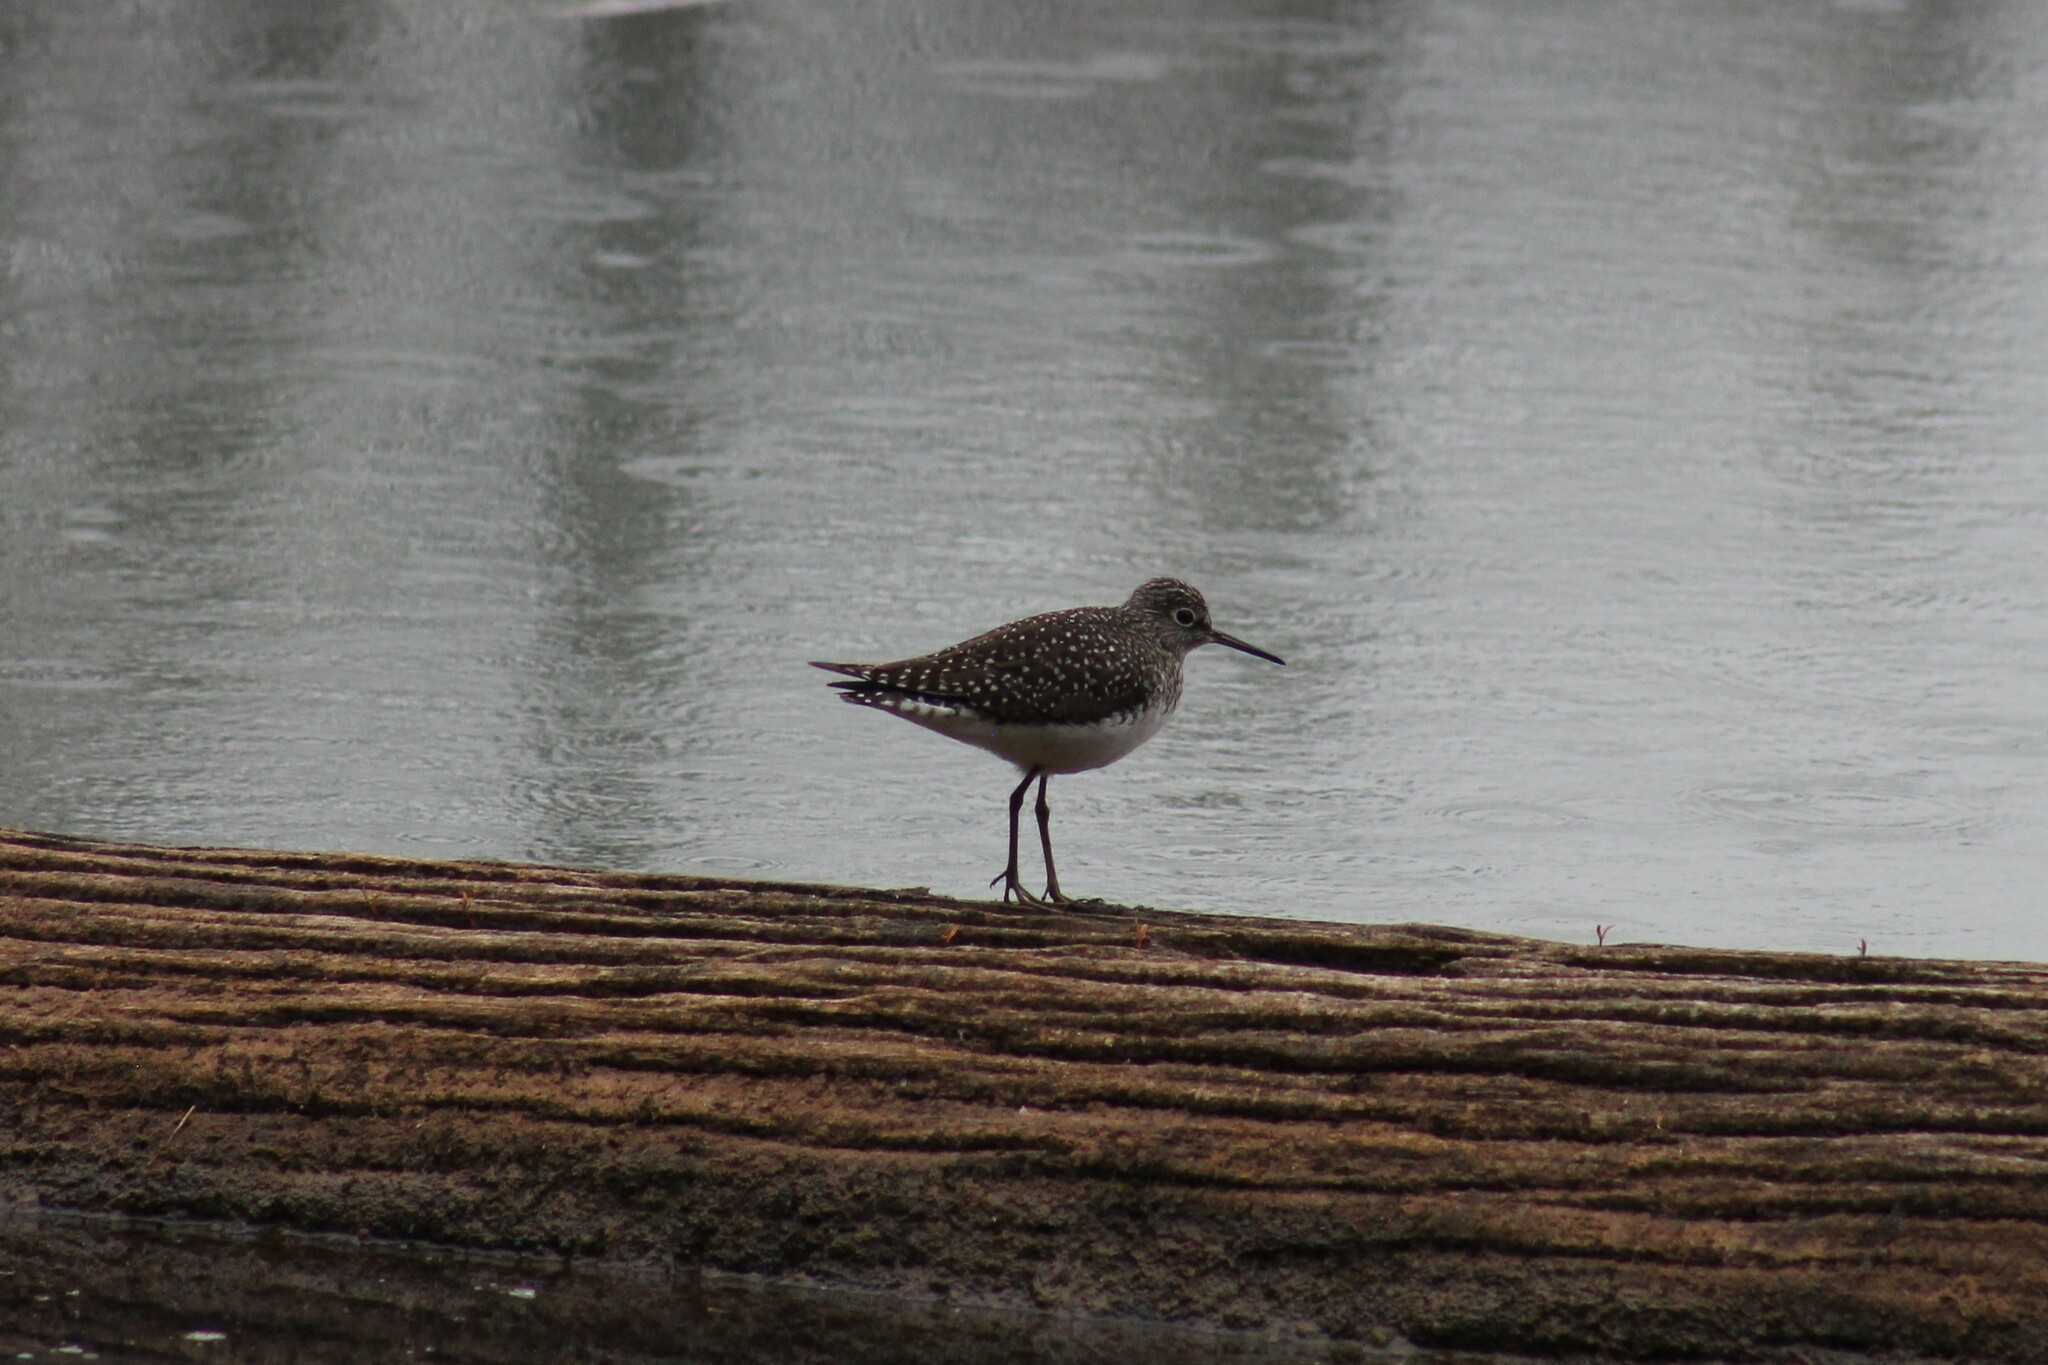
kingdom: Animalia
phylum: Chordata
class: Aves
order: Charadriiformes
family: Scolopacidae
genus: Tringa
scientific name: Tringa solitaria
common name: Solitary sandpiper
